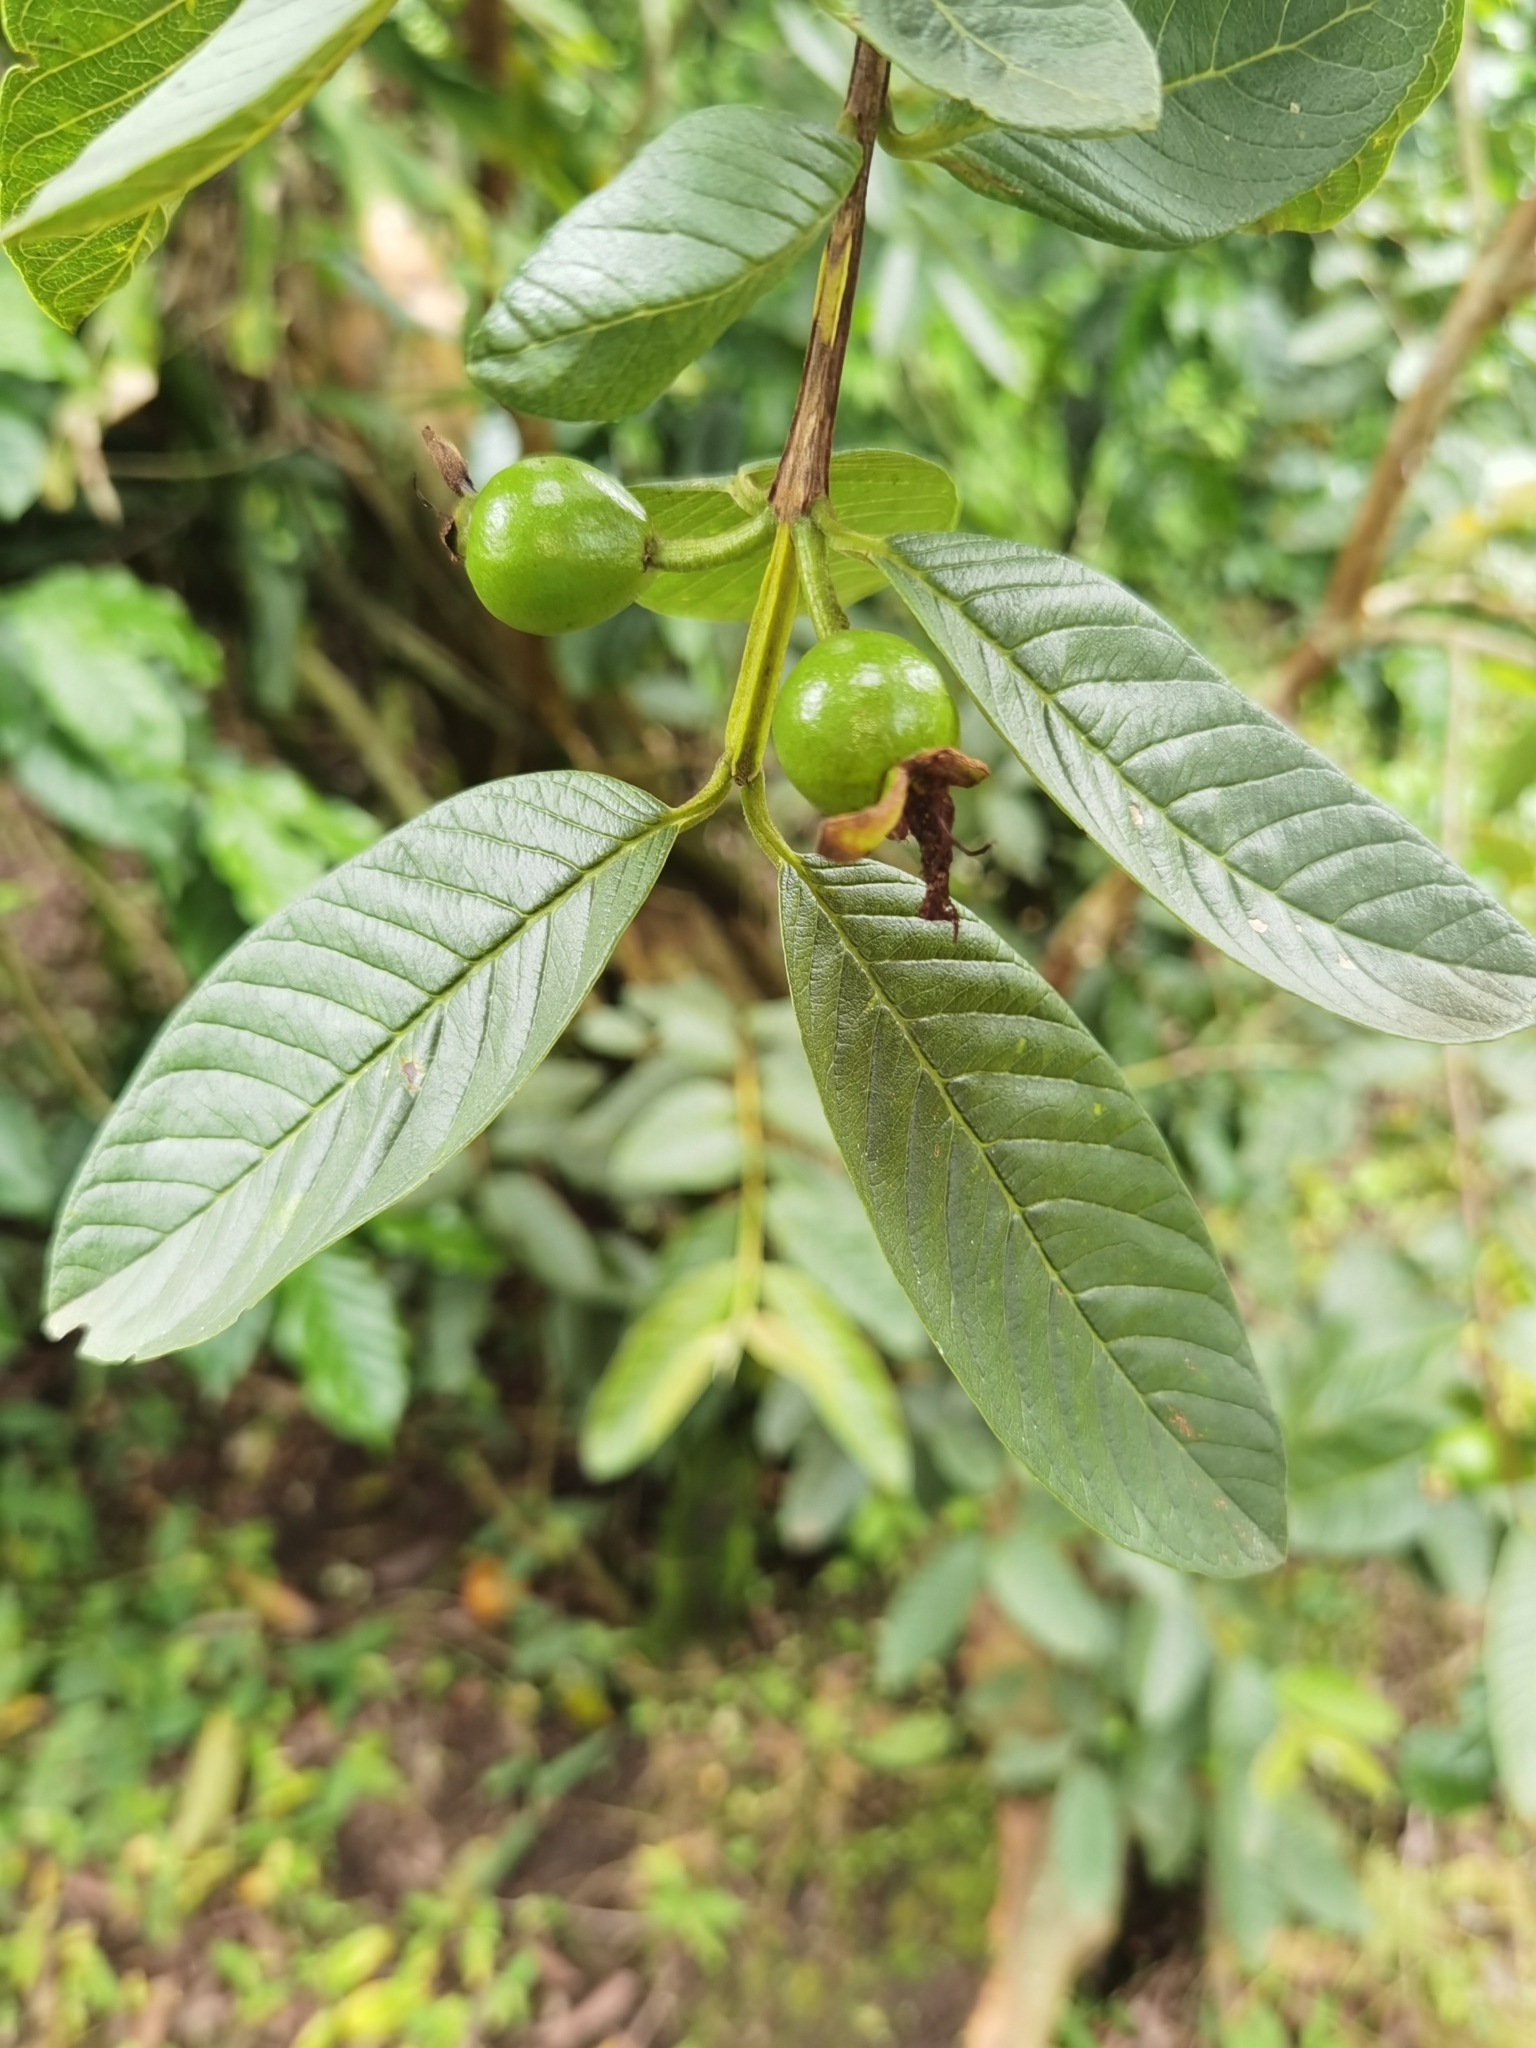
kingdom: Plantae
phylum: Tracheophyta
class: Magnoliopsida
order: Myrtales
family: Myrtaceae
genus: Psidium
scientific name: Psidium guajava
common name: Guava
